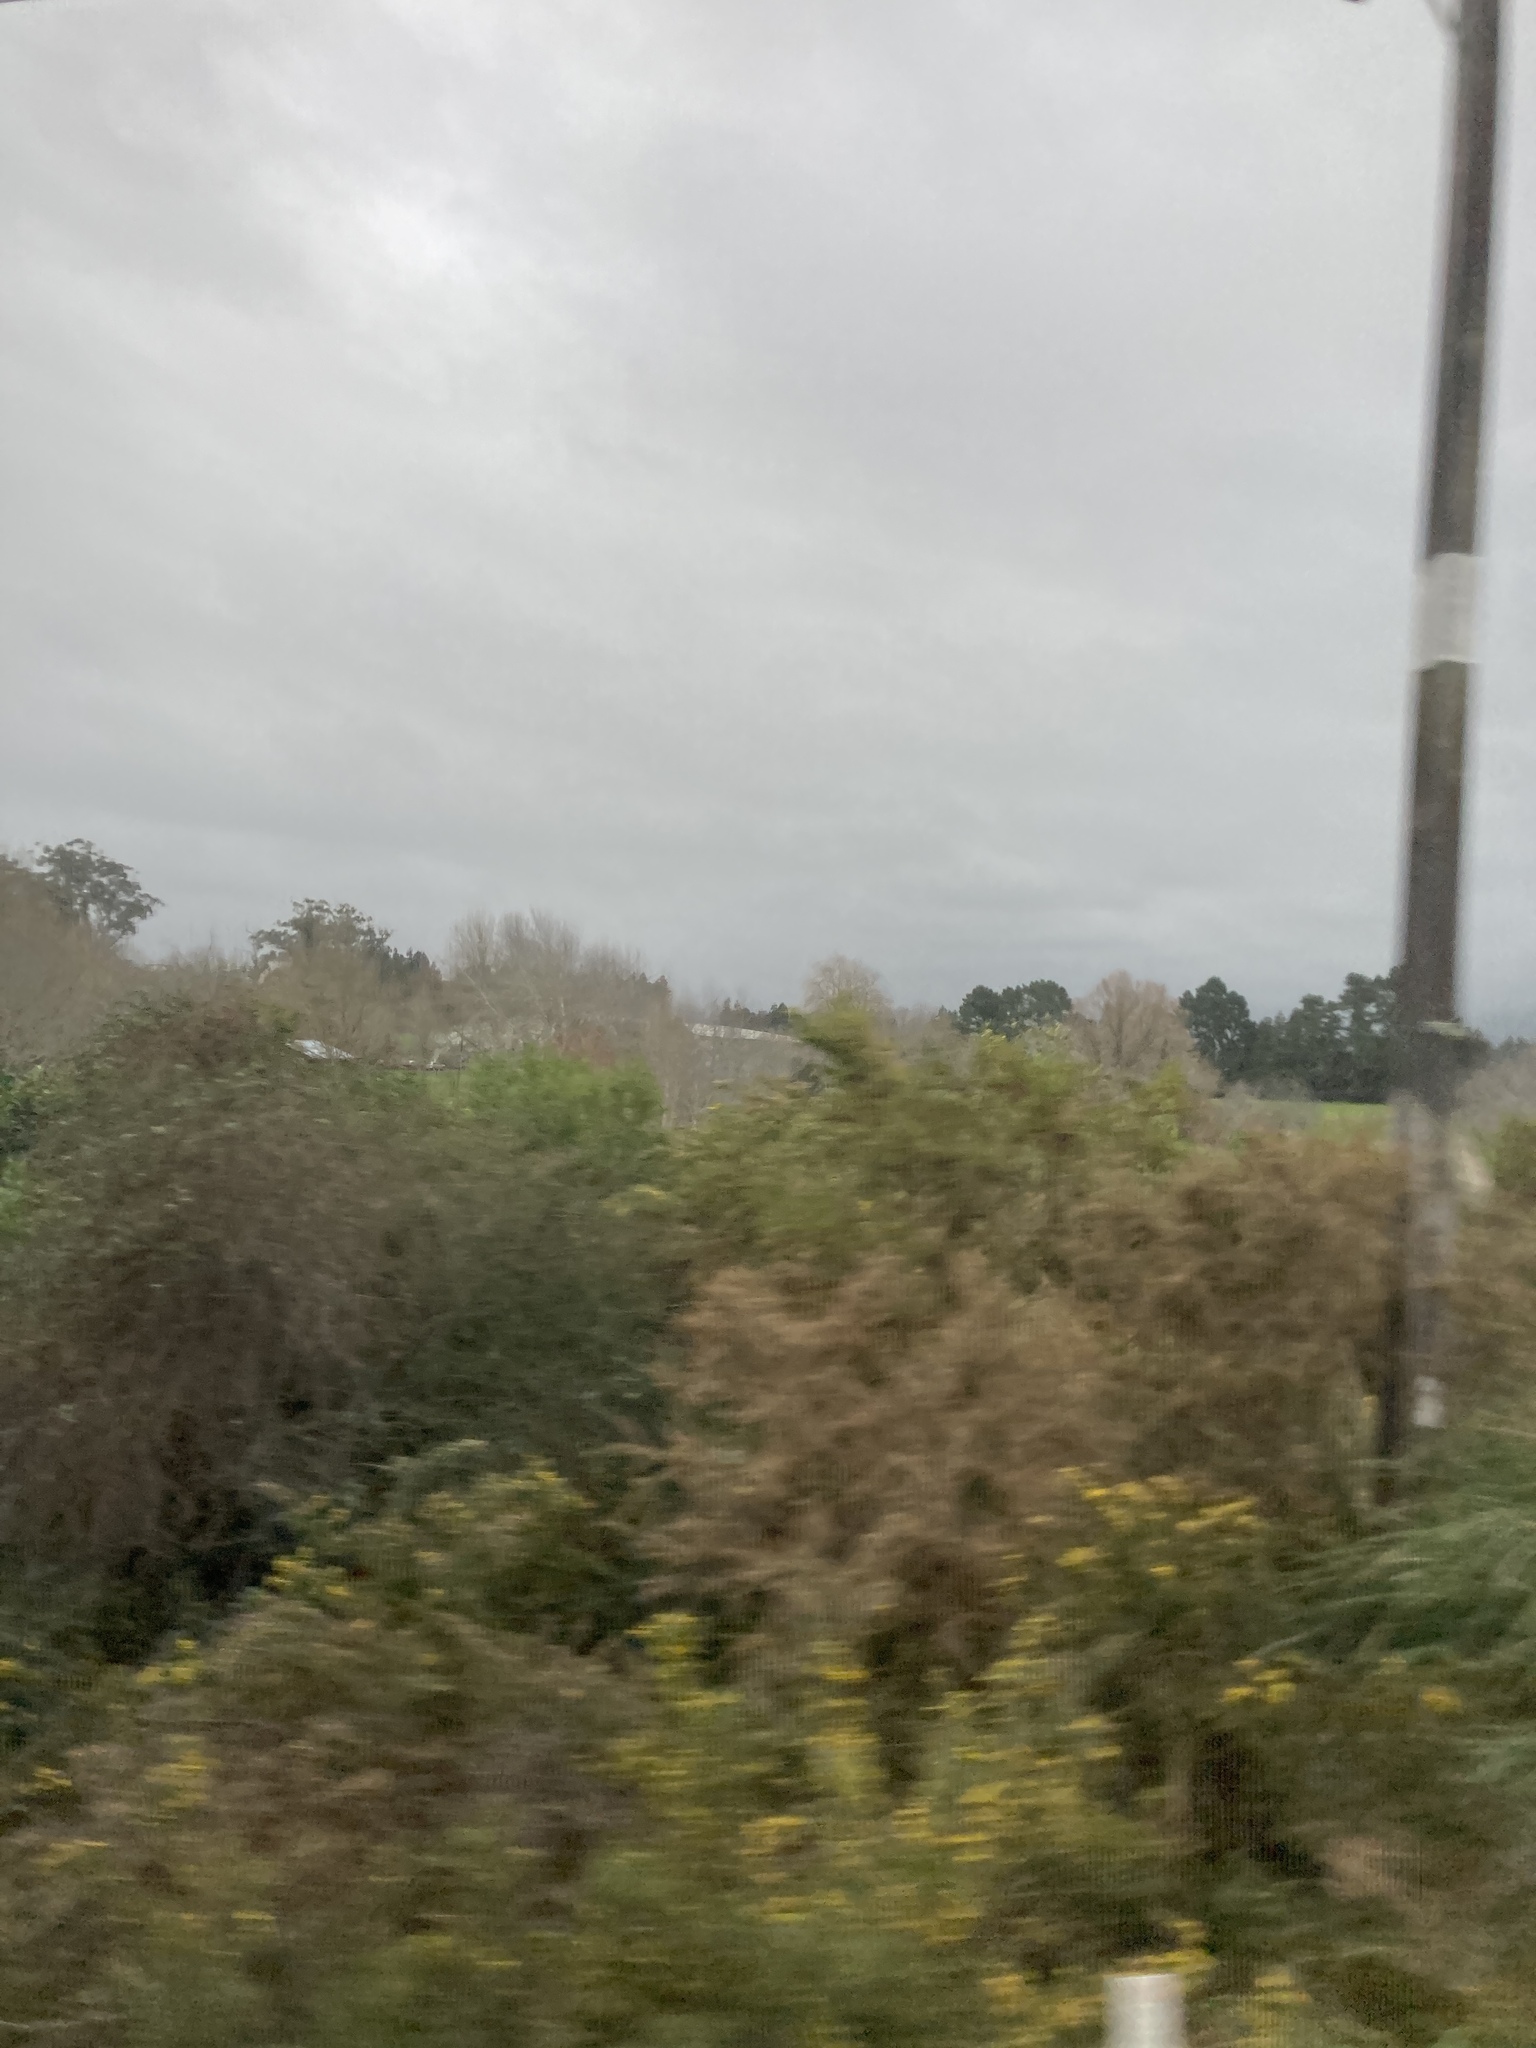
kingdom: Plantae
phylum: Tracheophyta
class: Magnoliopsida
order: Fabales
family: Fabaceae
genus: Ulex
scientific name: Ulex europaeus
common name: Common gorse
